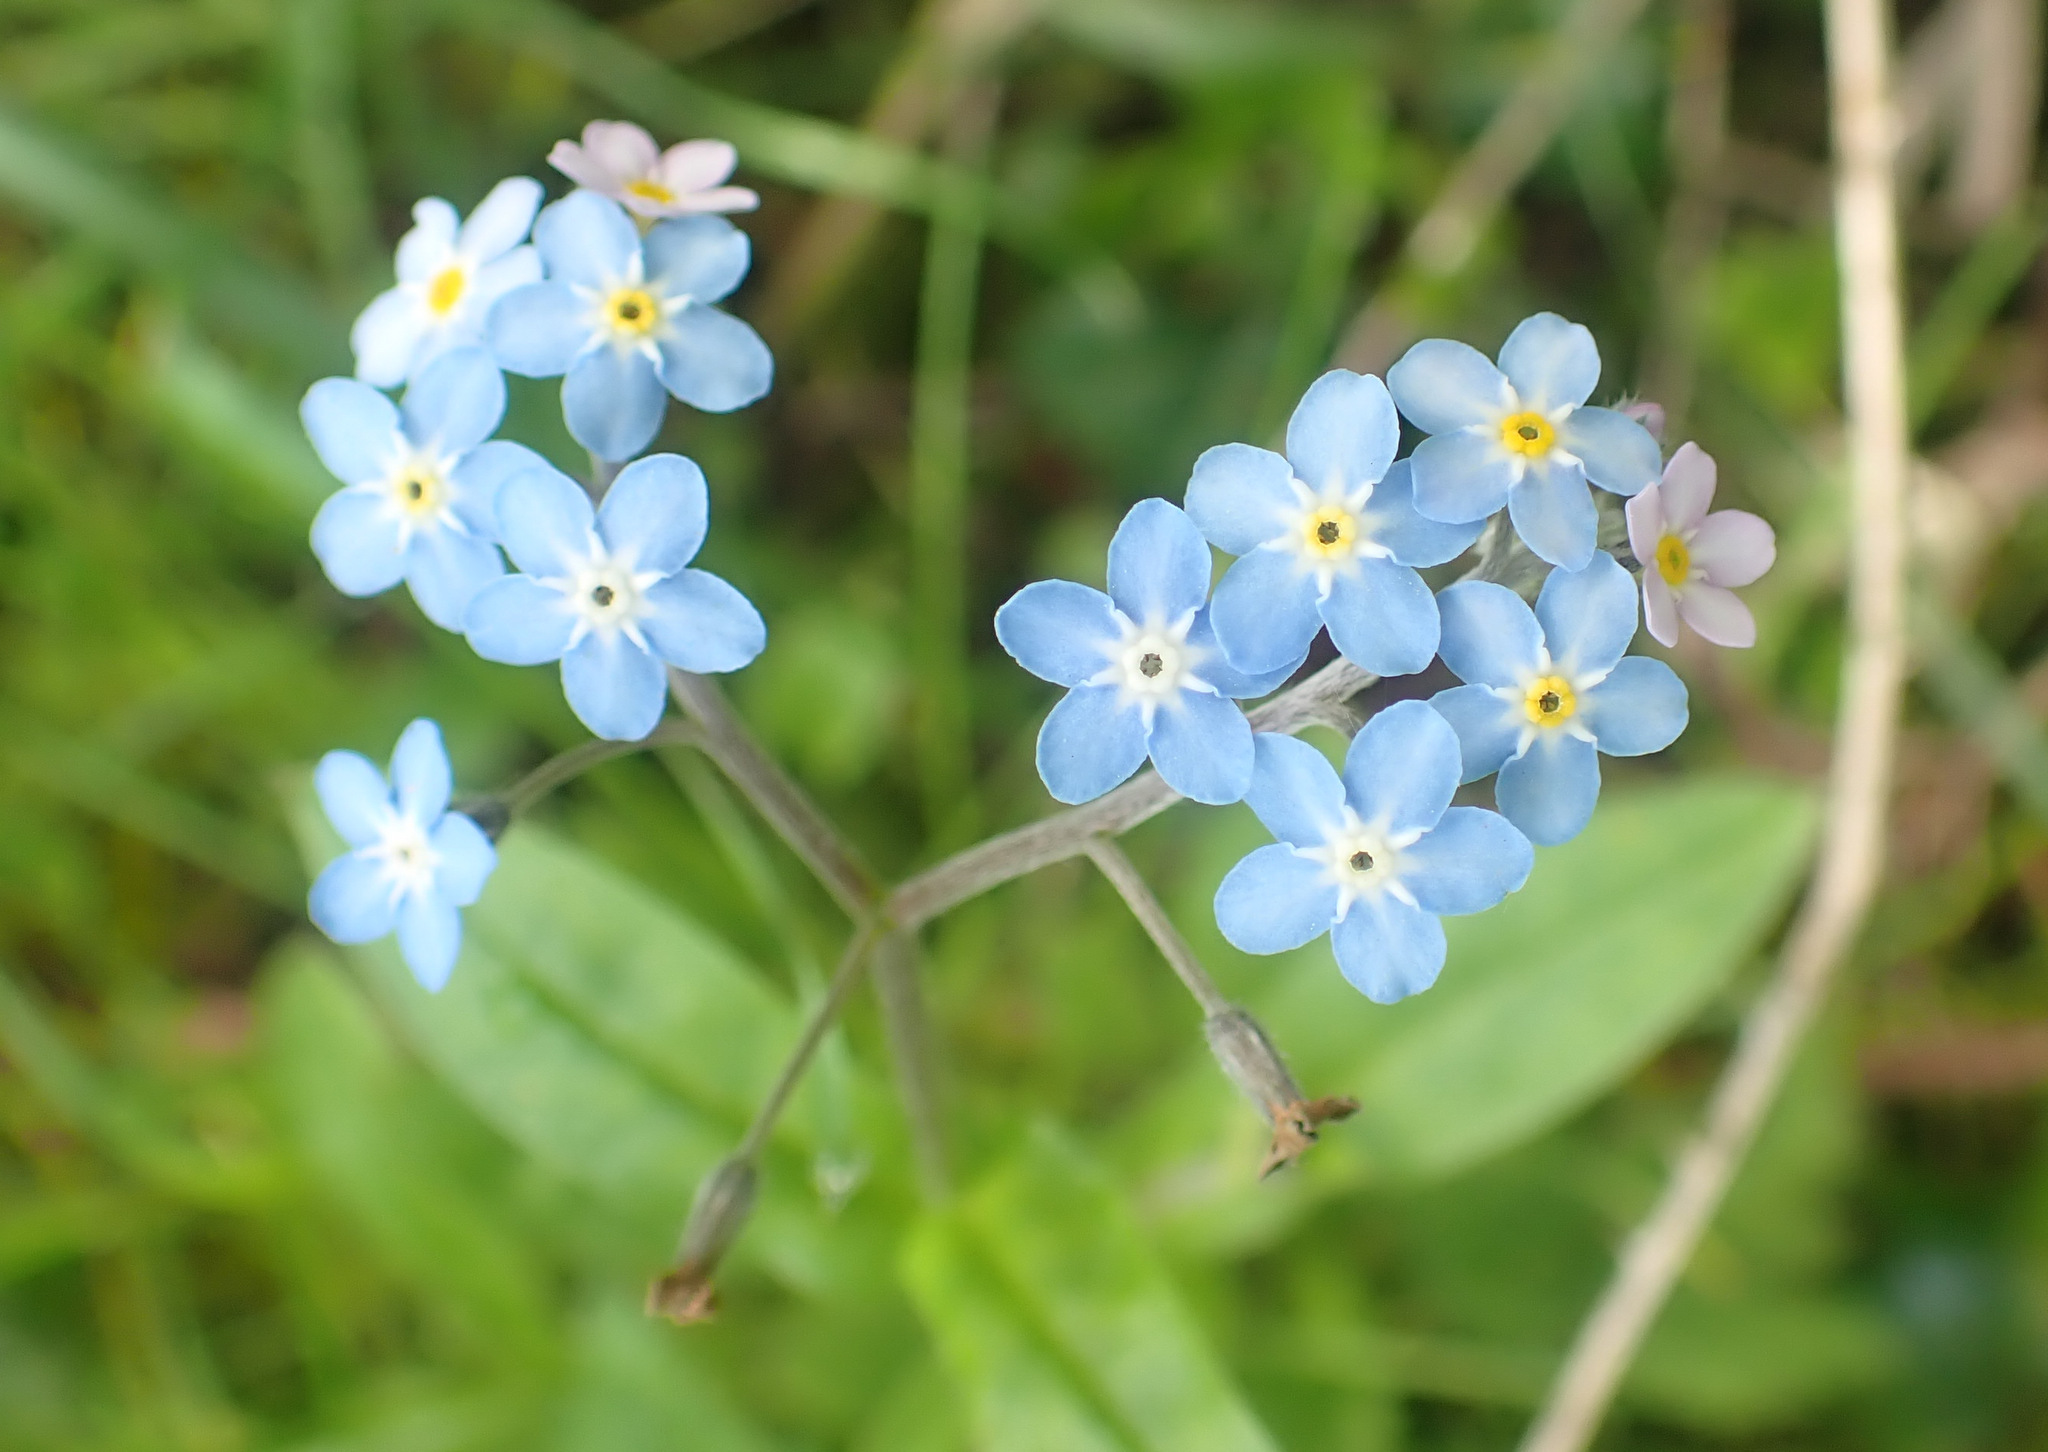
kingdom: Plantae
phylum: Tracheophyta
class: Magnoliopsida
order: Boraginales
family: Boraginaceae
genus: Myosotis
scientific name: Myosotis sylvatica
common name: Wood forget-me-not
